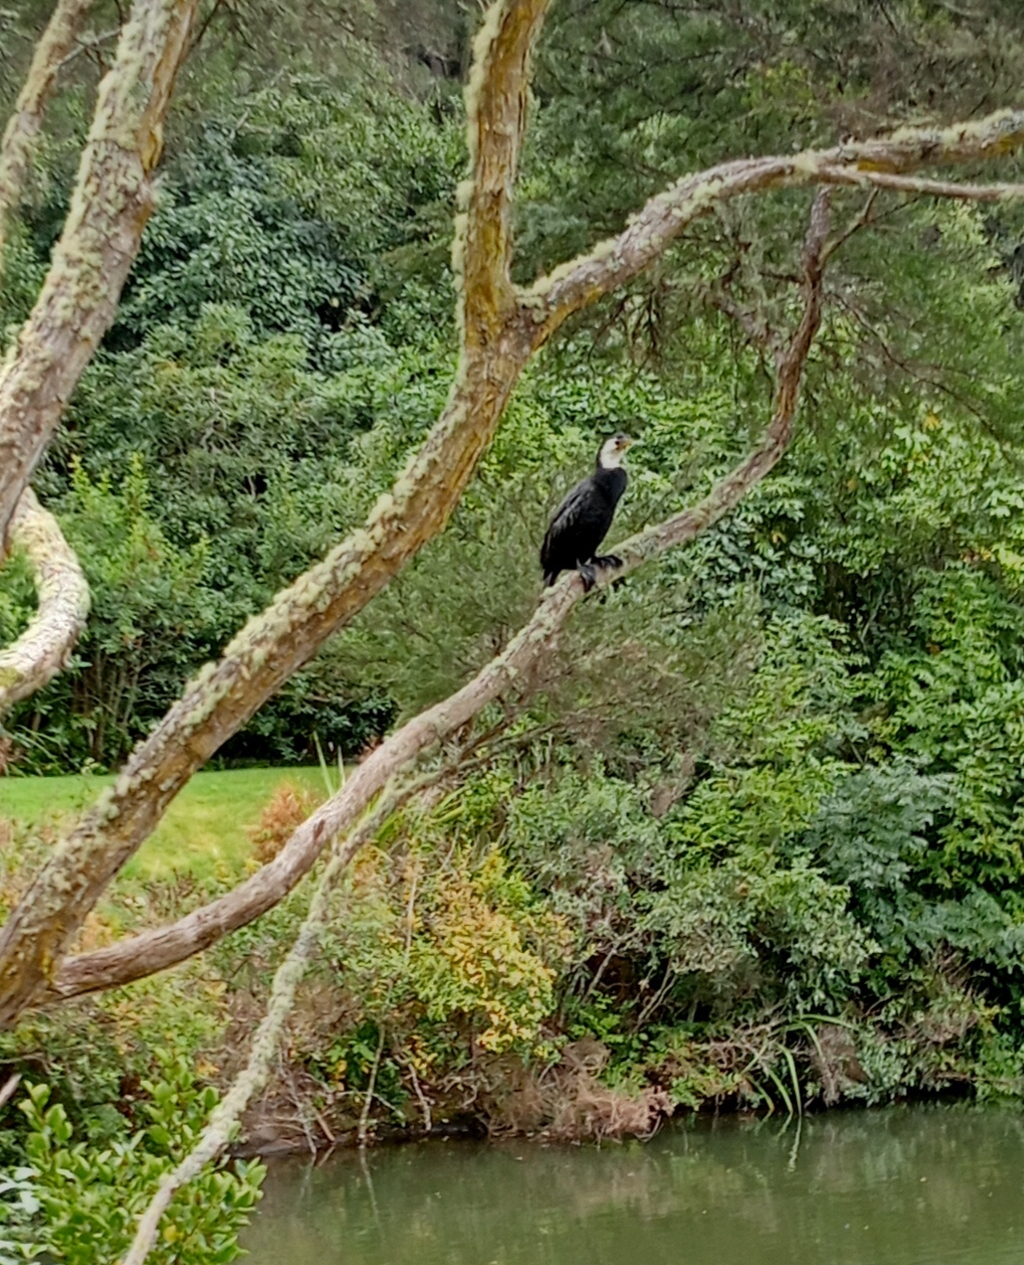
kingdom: Animalia
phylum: Chordata
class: Aves
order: Suliformes
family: Phalacrocoracidae
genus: Microcarbo
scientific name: Microcarbo melanoleucos
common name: Little pied cormorant
